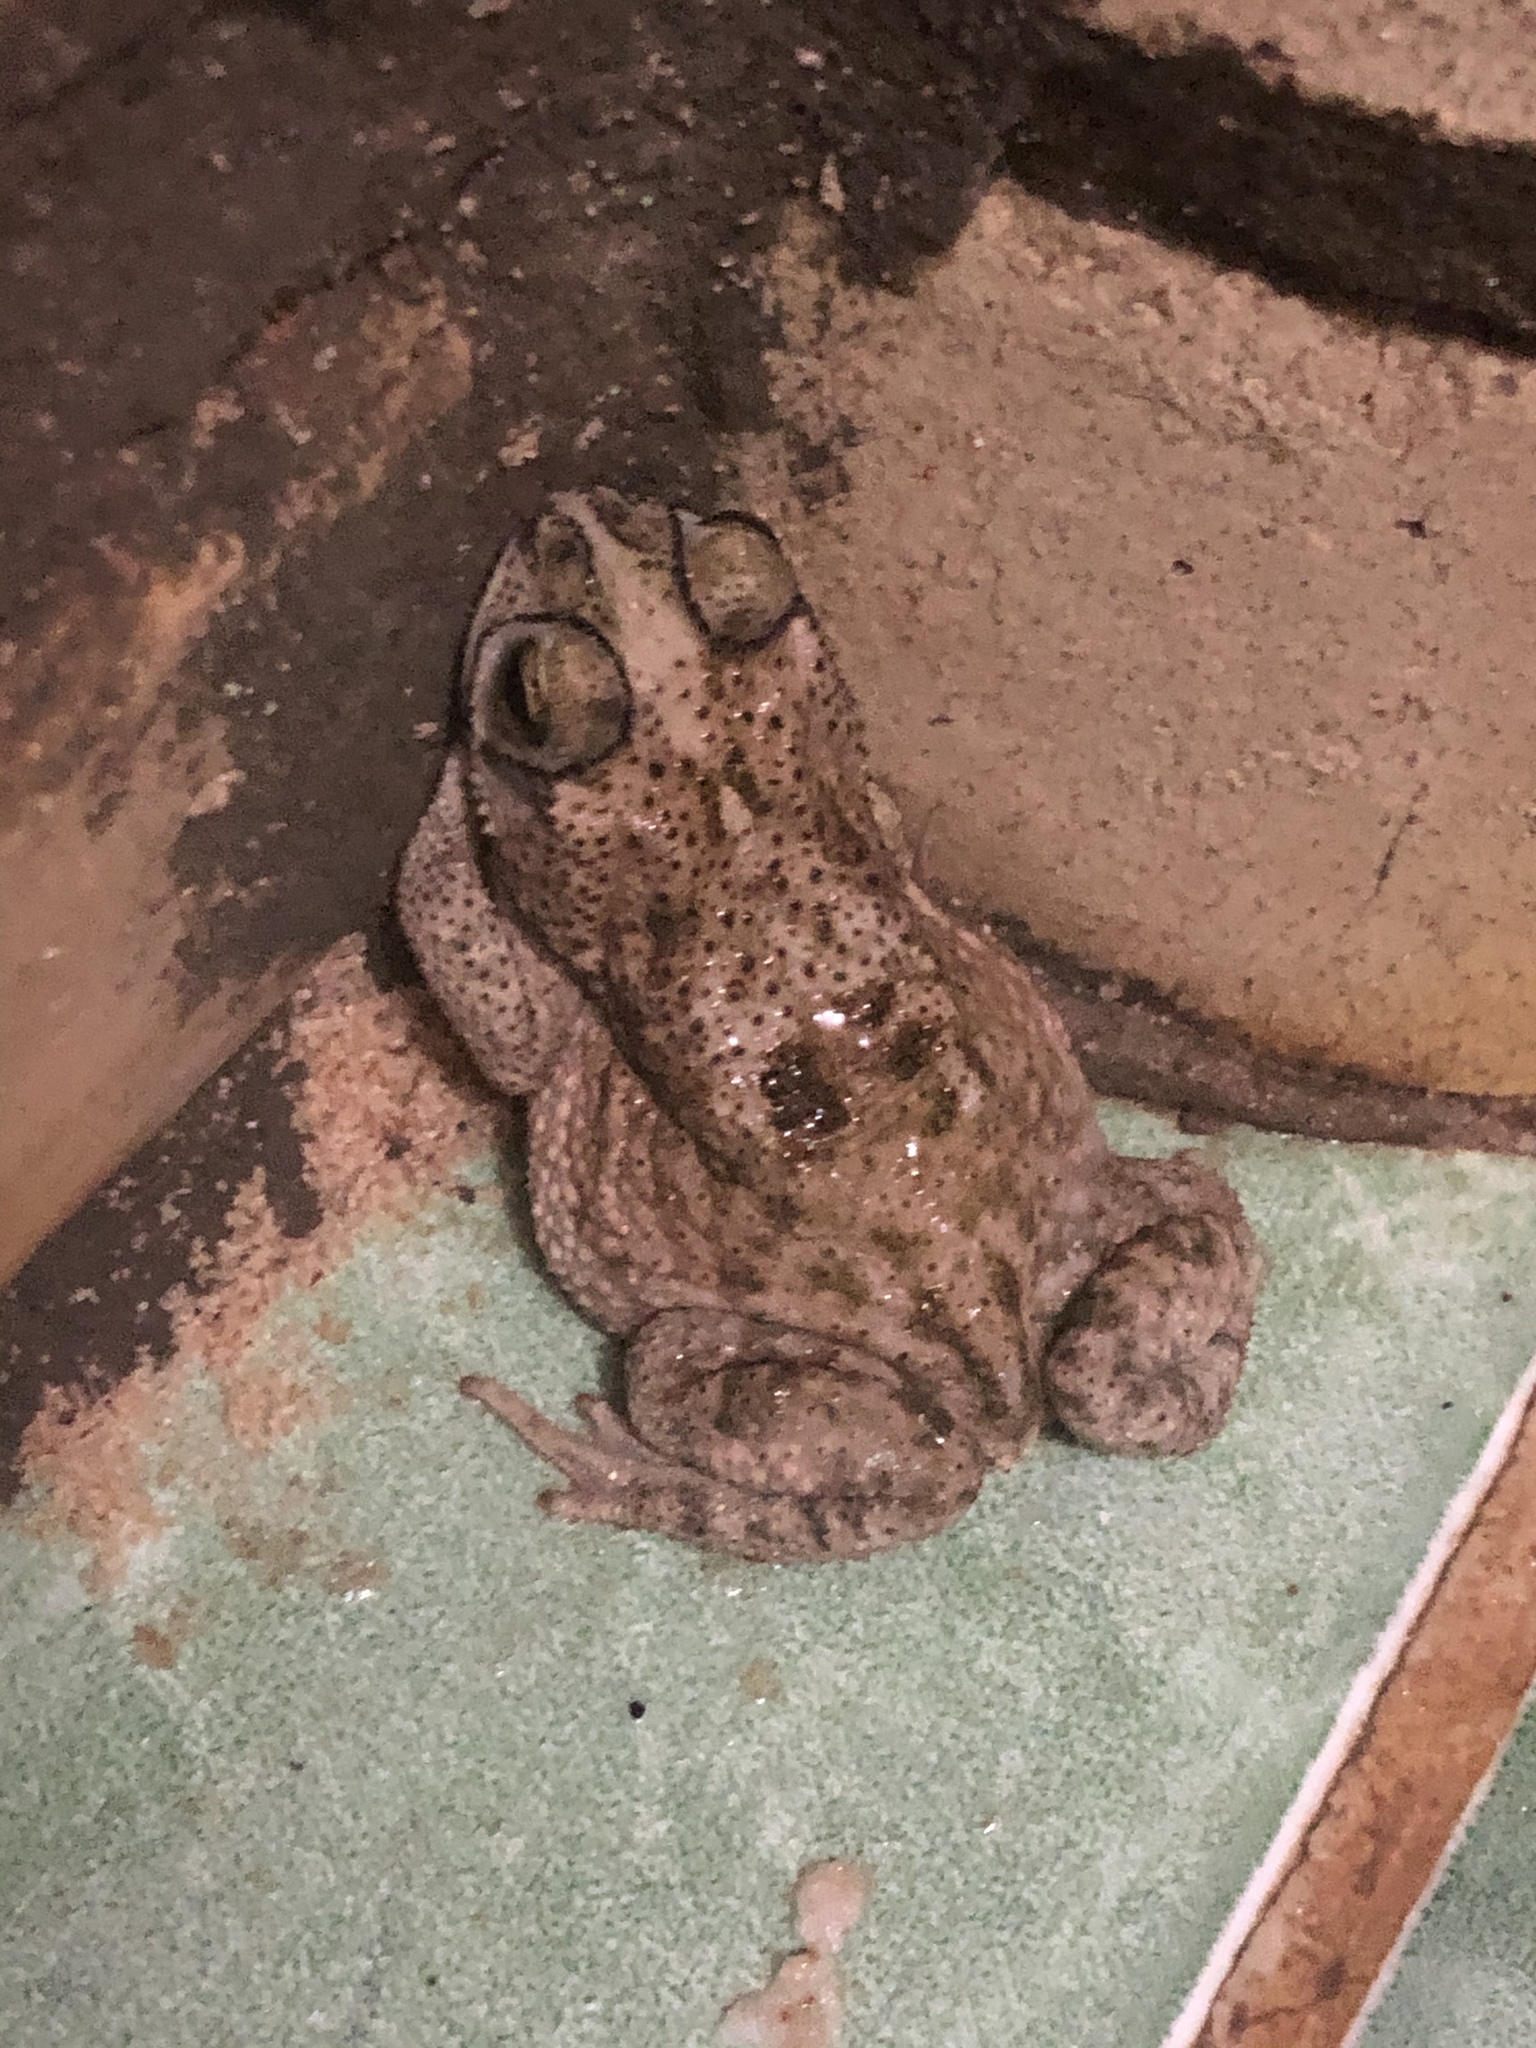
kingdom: Animalia
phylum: Chordata
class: Amphibia
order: Anura
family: Bufonidae
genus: Rhinella
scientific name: Rhinella granulosa
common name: Common lesser toad
